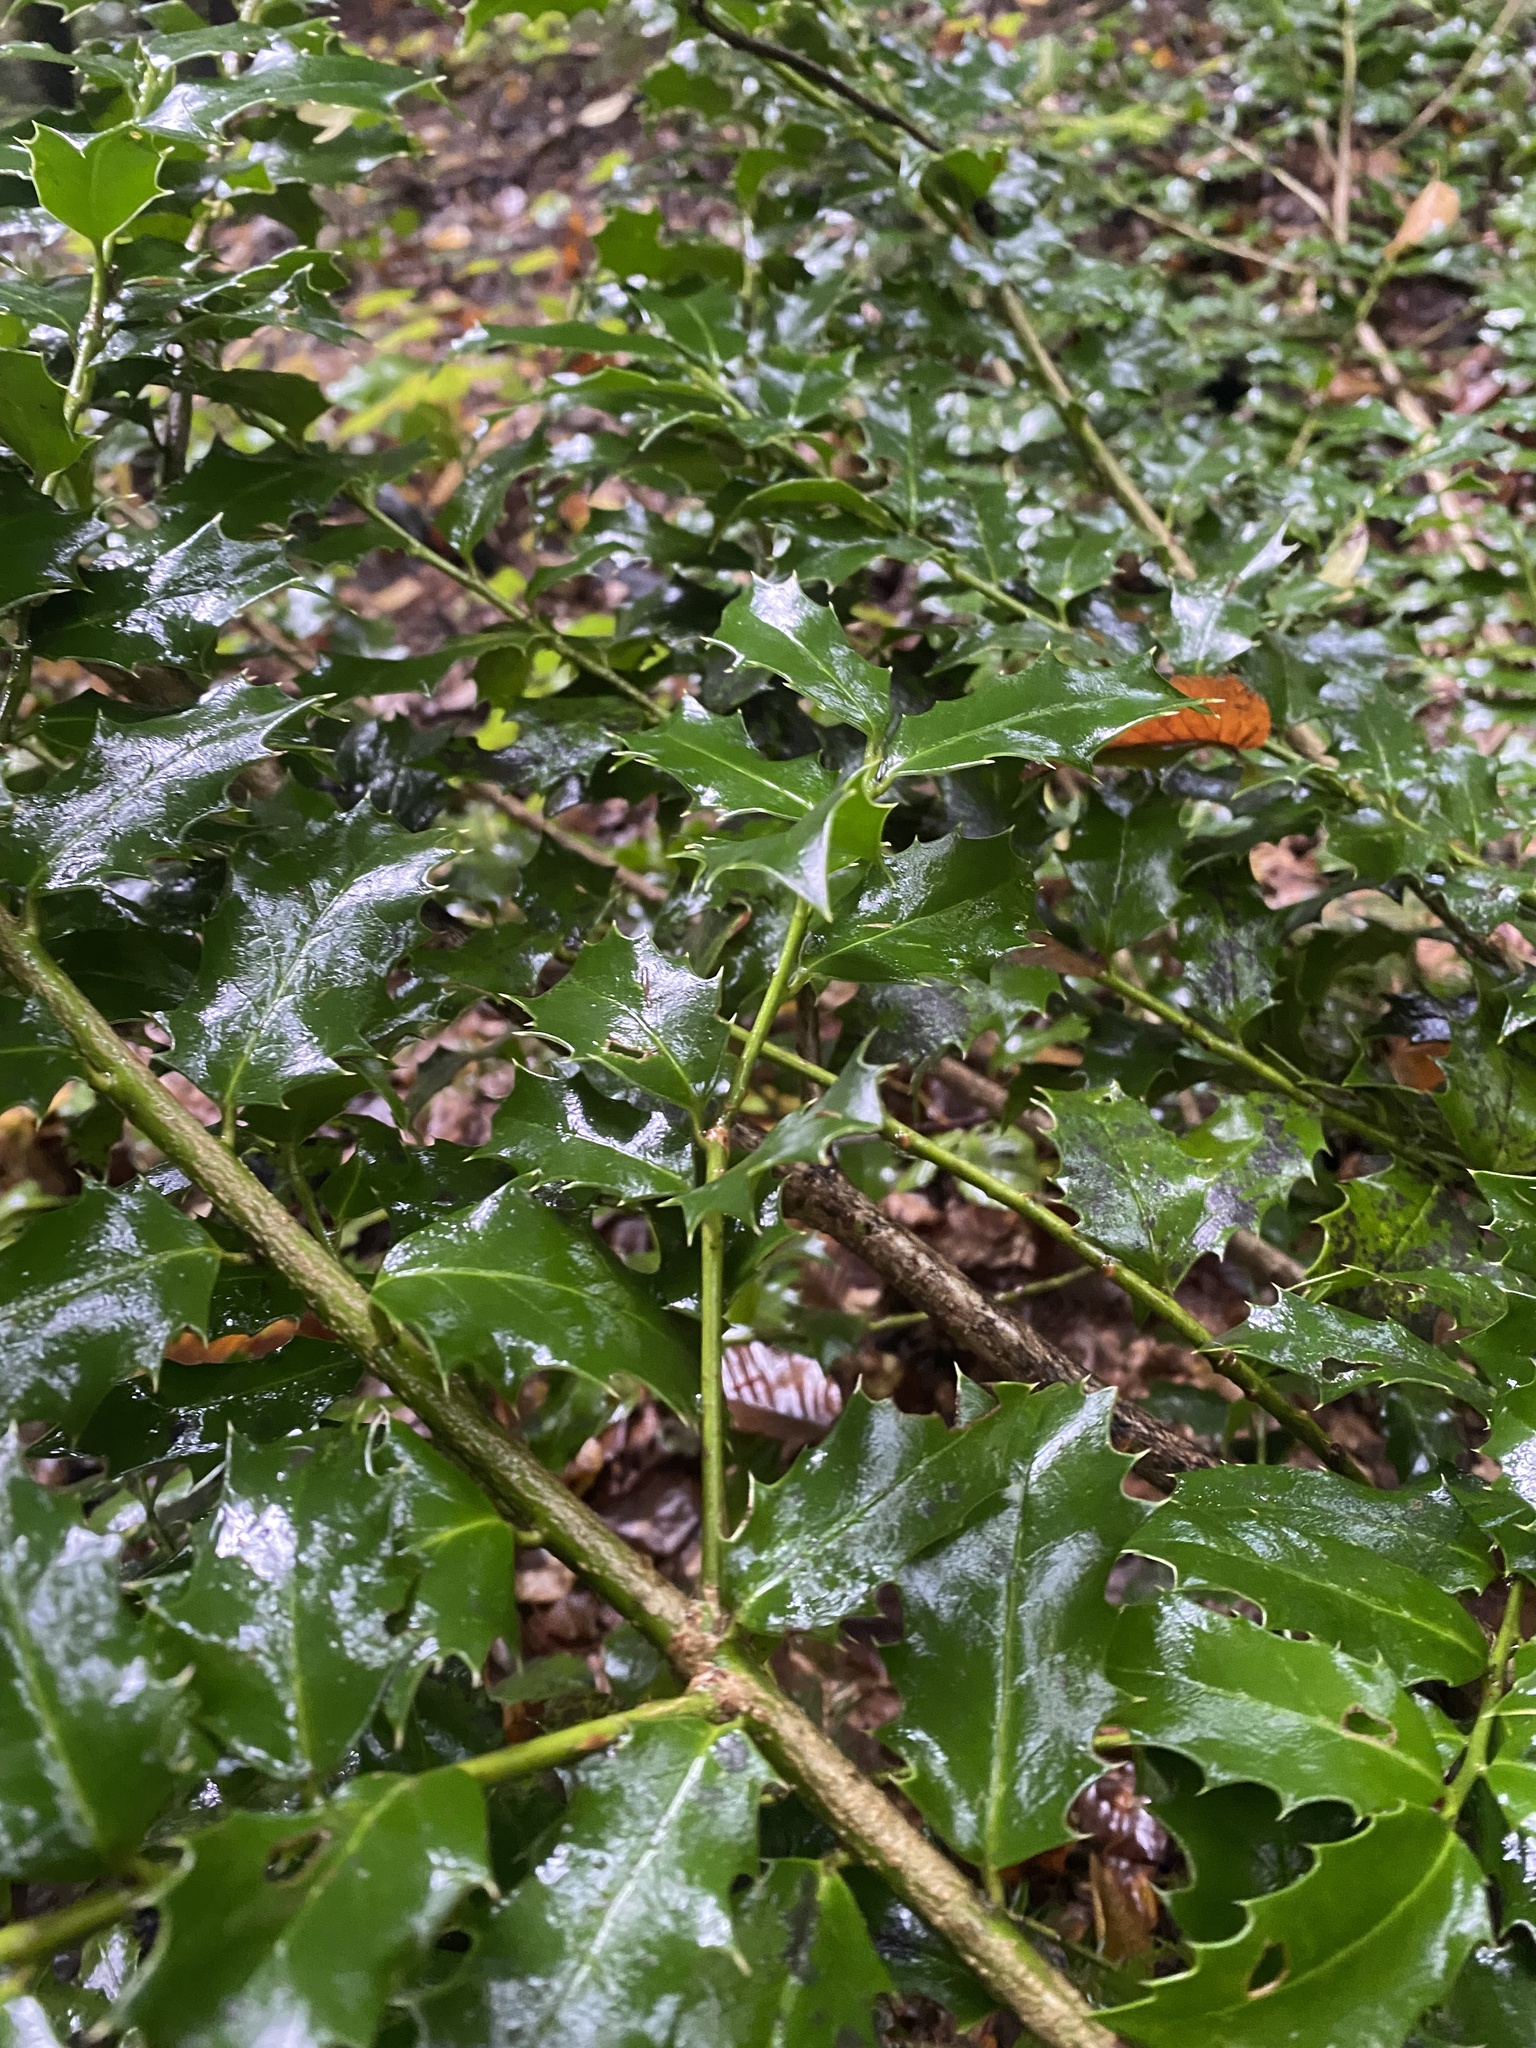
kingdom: Plantae
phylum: Tracheophyta
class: Magnoliopsida
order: Aquifoliales
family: Aquifoliaceae
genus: Ilex
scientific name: Ilex colchica
